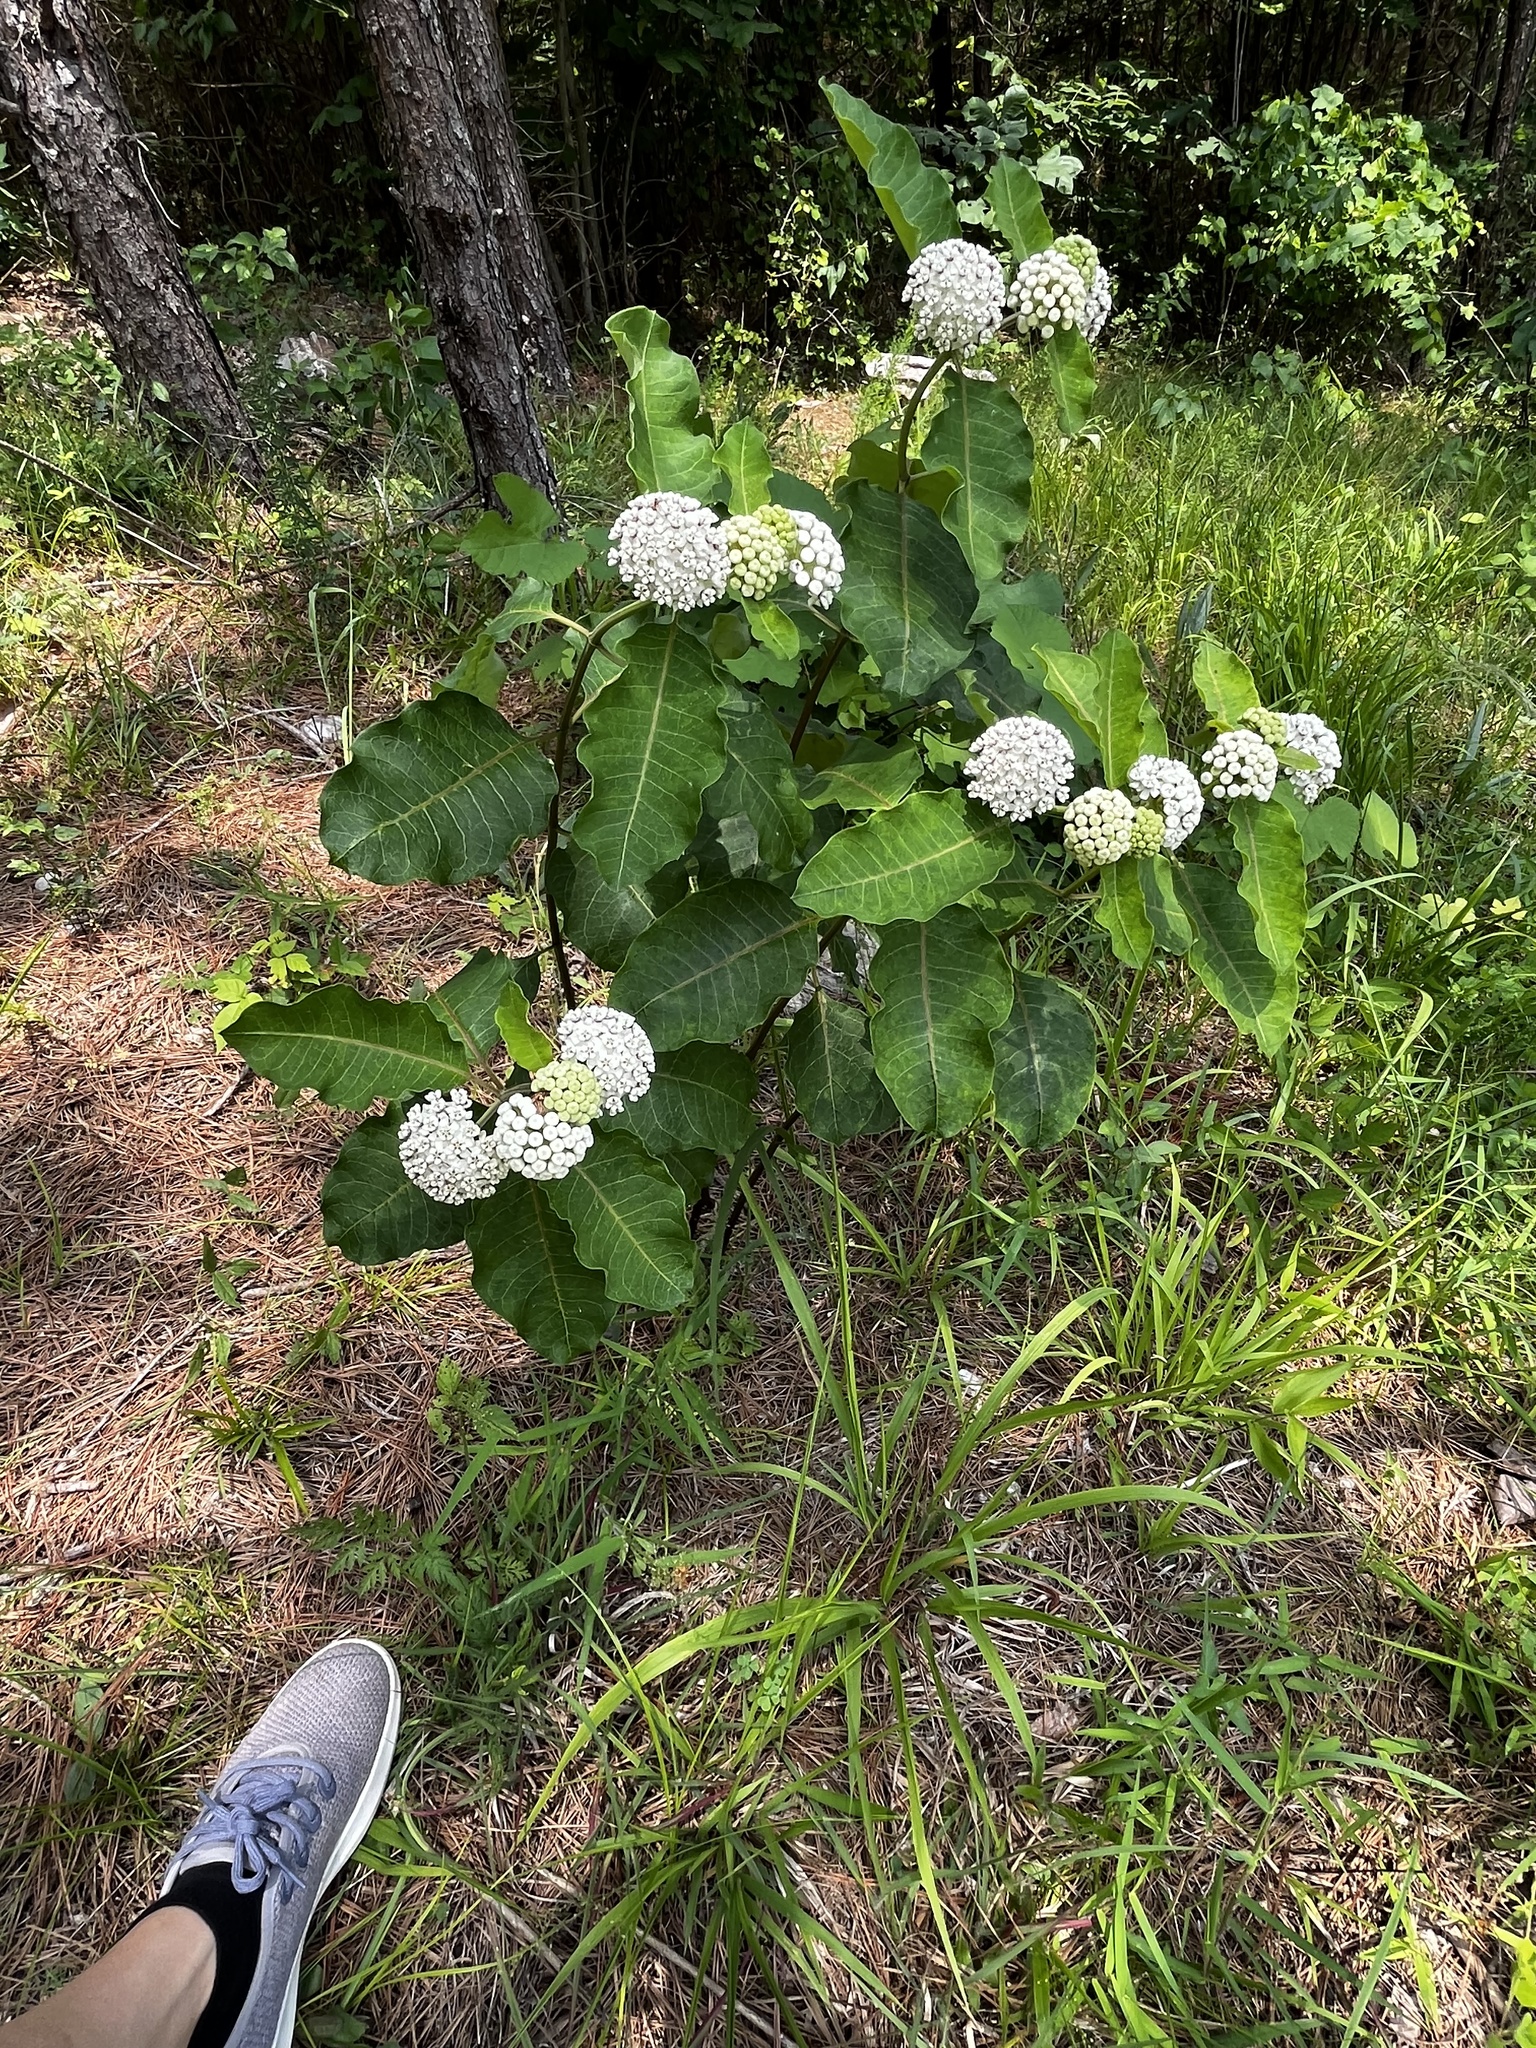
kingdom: Plantae
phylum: Tracheophyta
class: Magnoliopsida
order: Gentianales
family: Apocynaceae
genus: Asclepias
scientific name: Asclepias variegata
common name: Variegated milkweed
